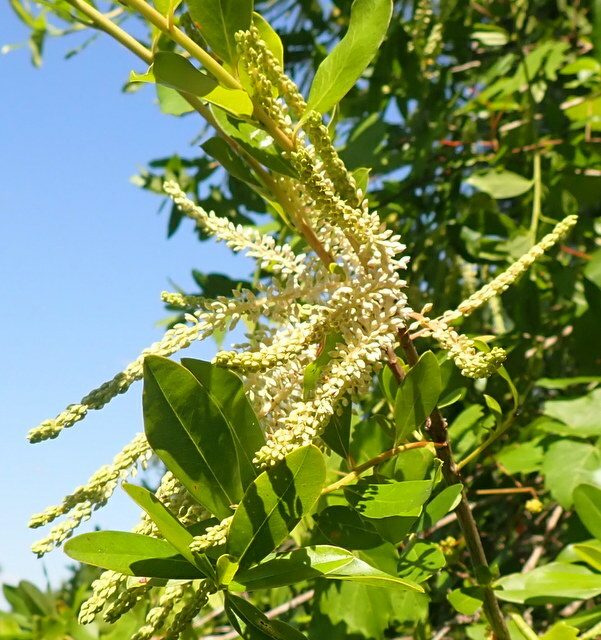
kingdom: Plantae
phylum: Tracheophyta
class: Magnoliopsida
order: Ericales
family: Cyrillaceae
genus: Cyrilla
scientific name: Cyrilla racemiflora
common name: Black titi
